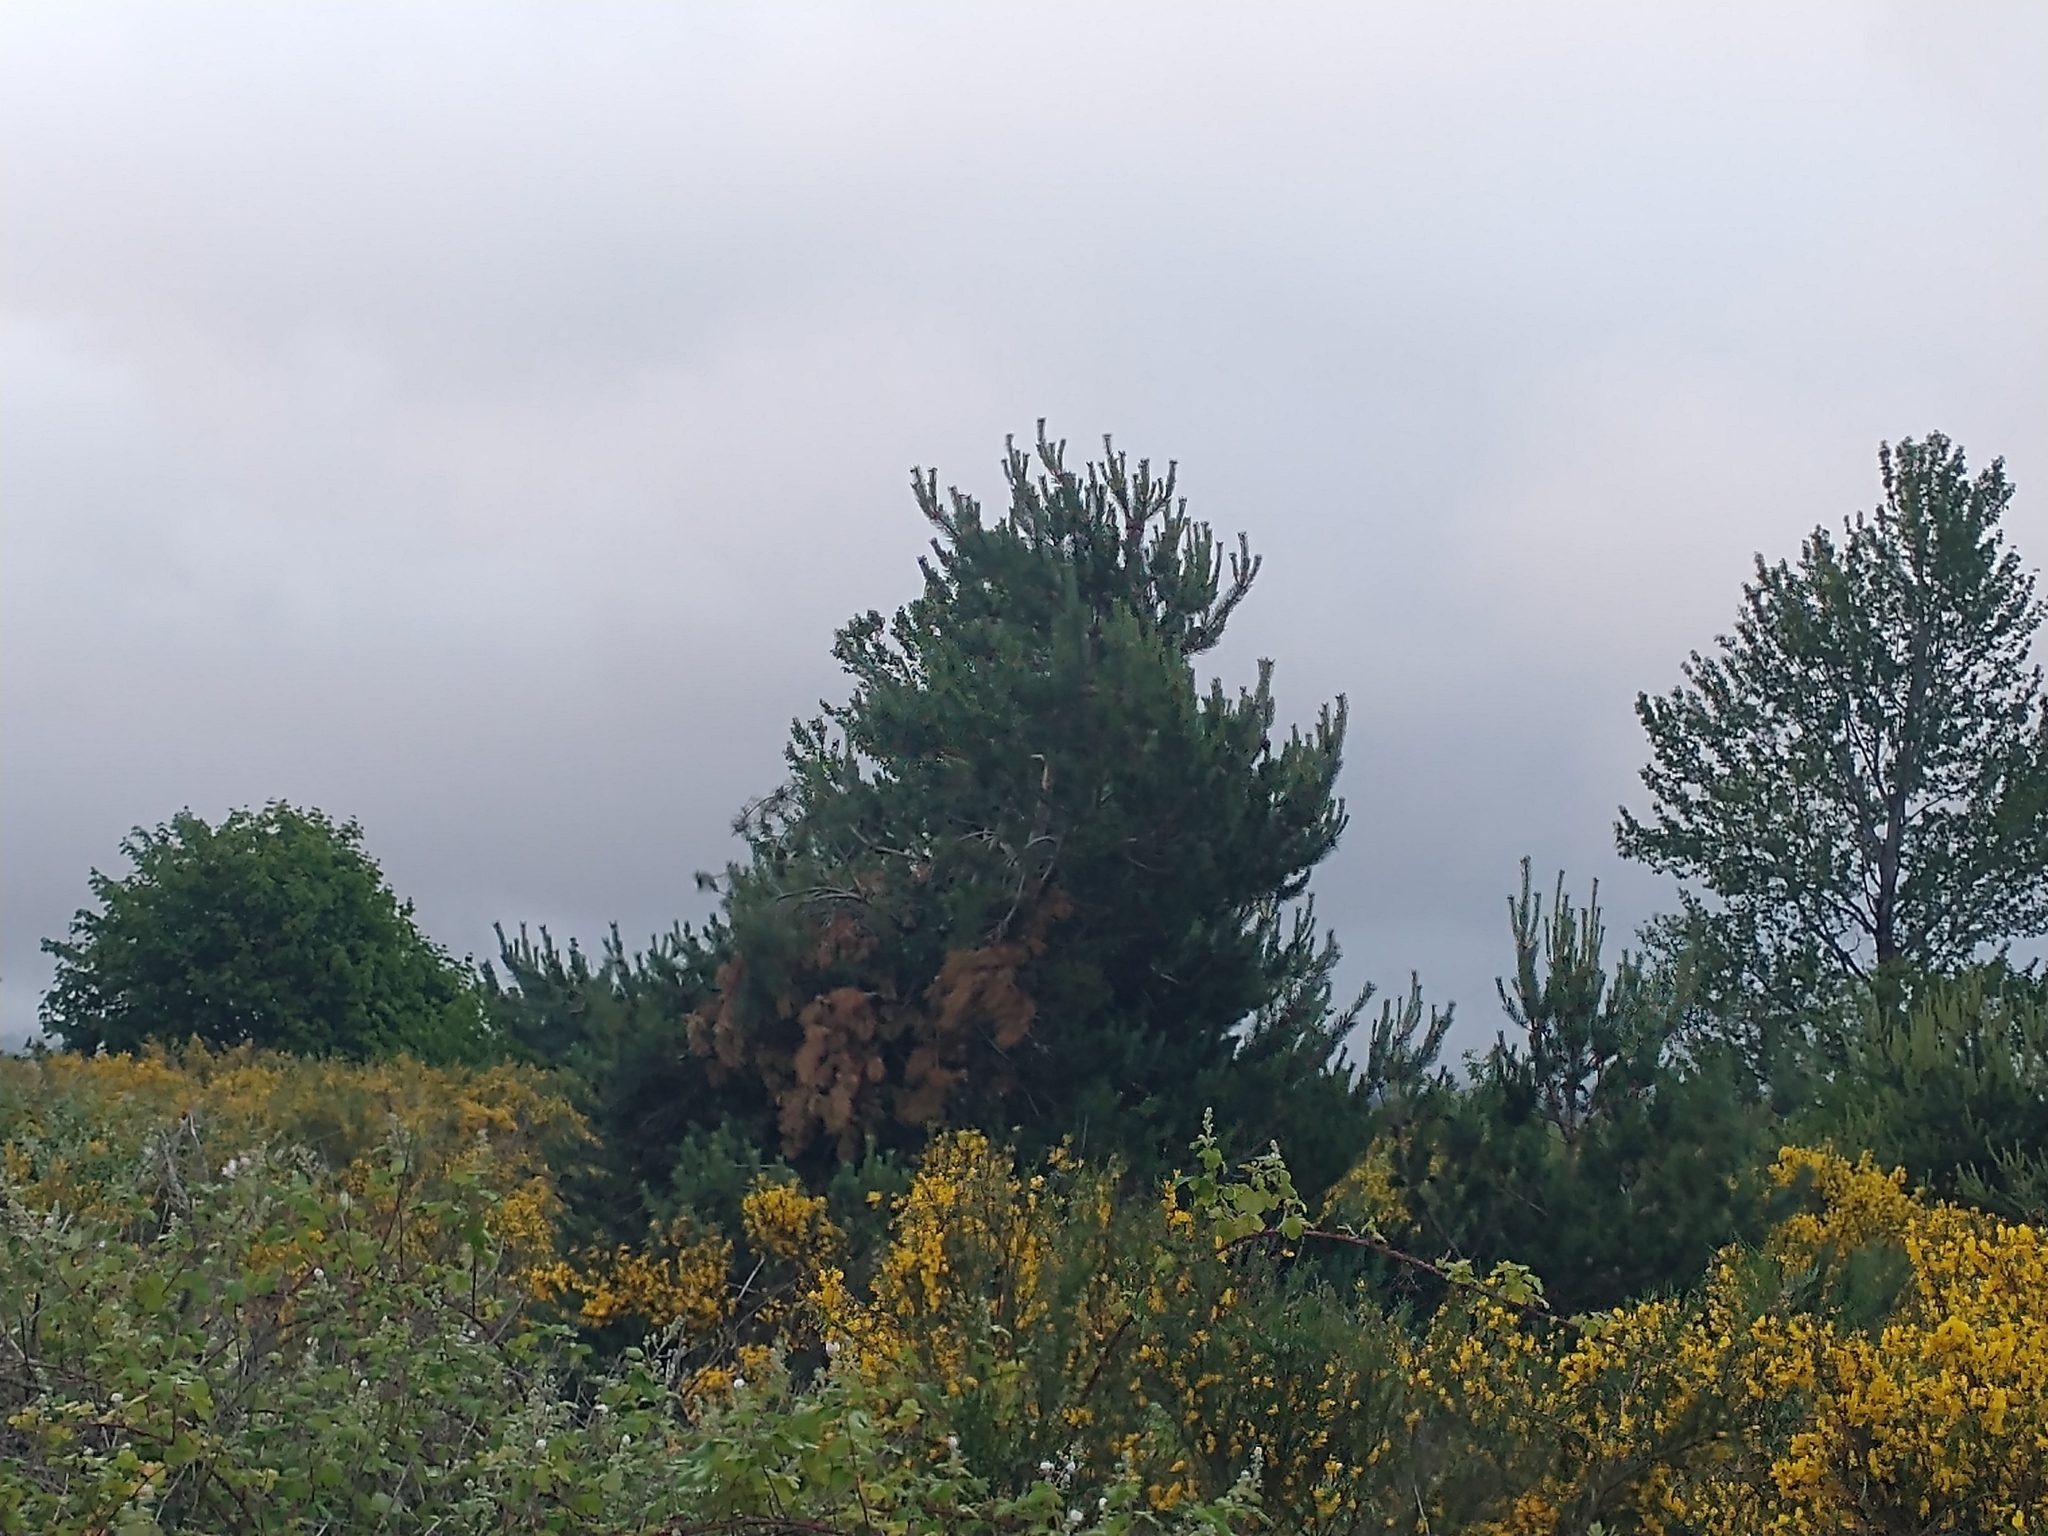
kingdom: Plantae
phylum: Tracheophyta
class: Pinopsida
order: Pinales
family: Pinaceae
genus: Pinus
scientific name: Pinus contorta
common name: Lodgepole pine
